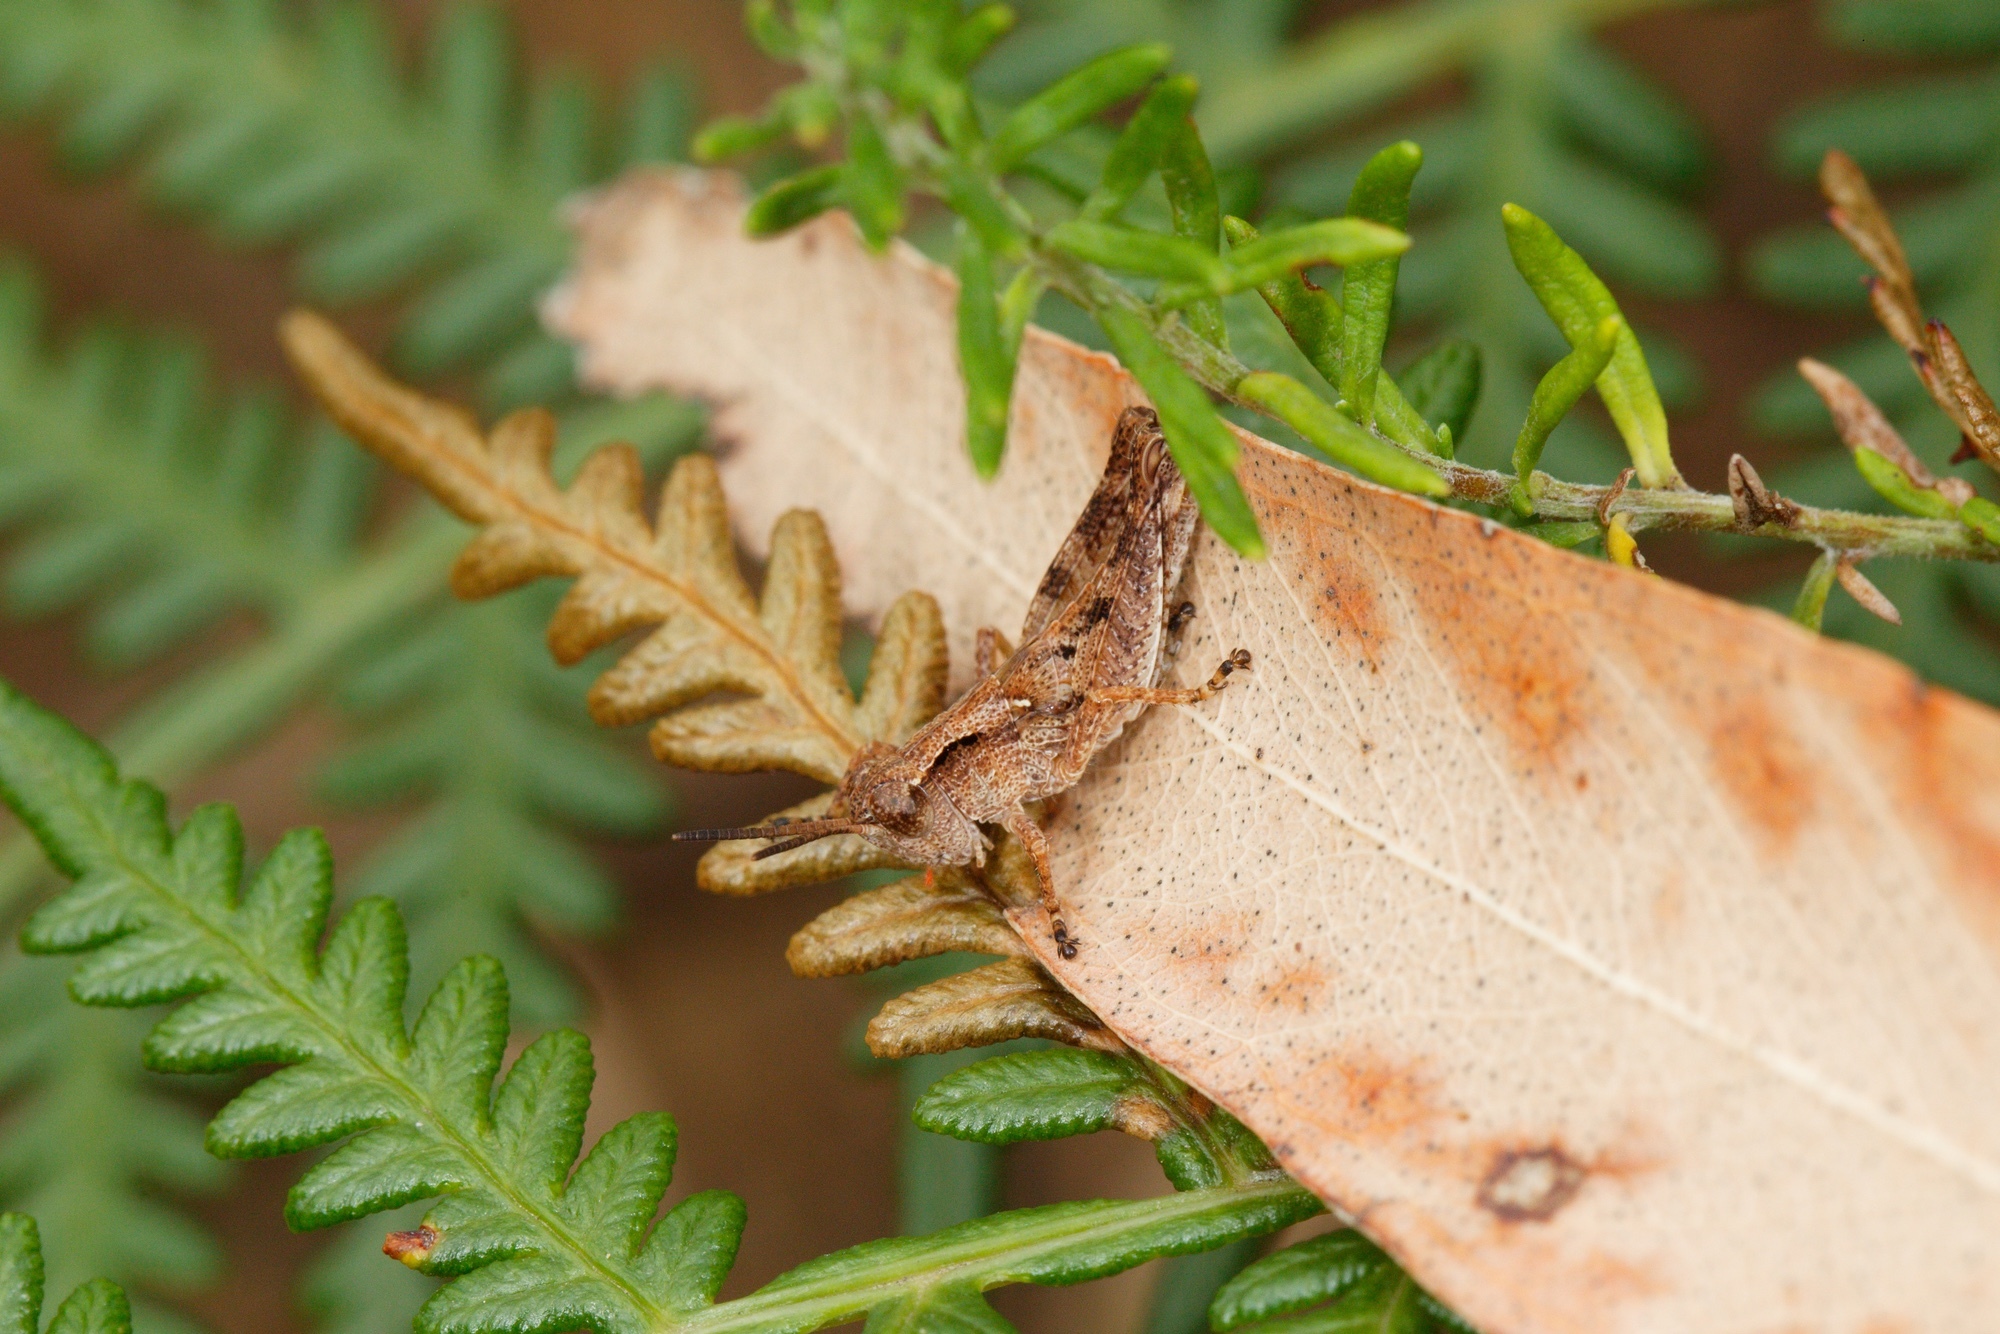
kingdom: Animalia
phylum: Arthropoda
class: Insecta
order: Orthoptera
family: Acrididae
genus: Phaulacridium
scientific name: Phaulacridium vittatum
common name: Wingless grasshopper
